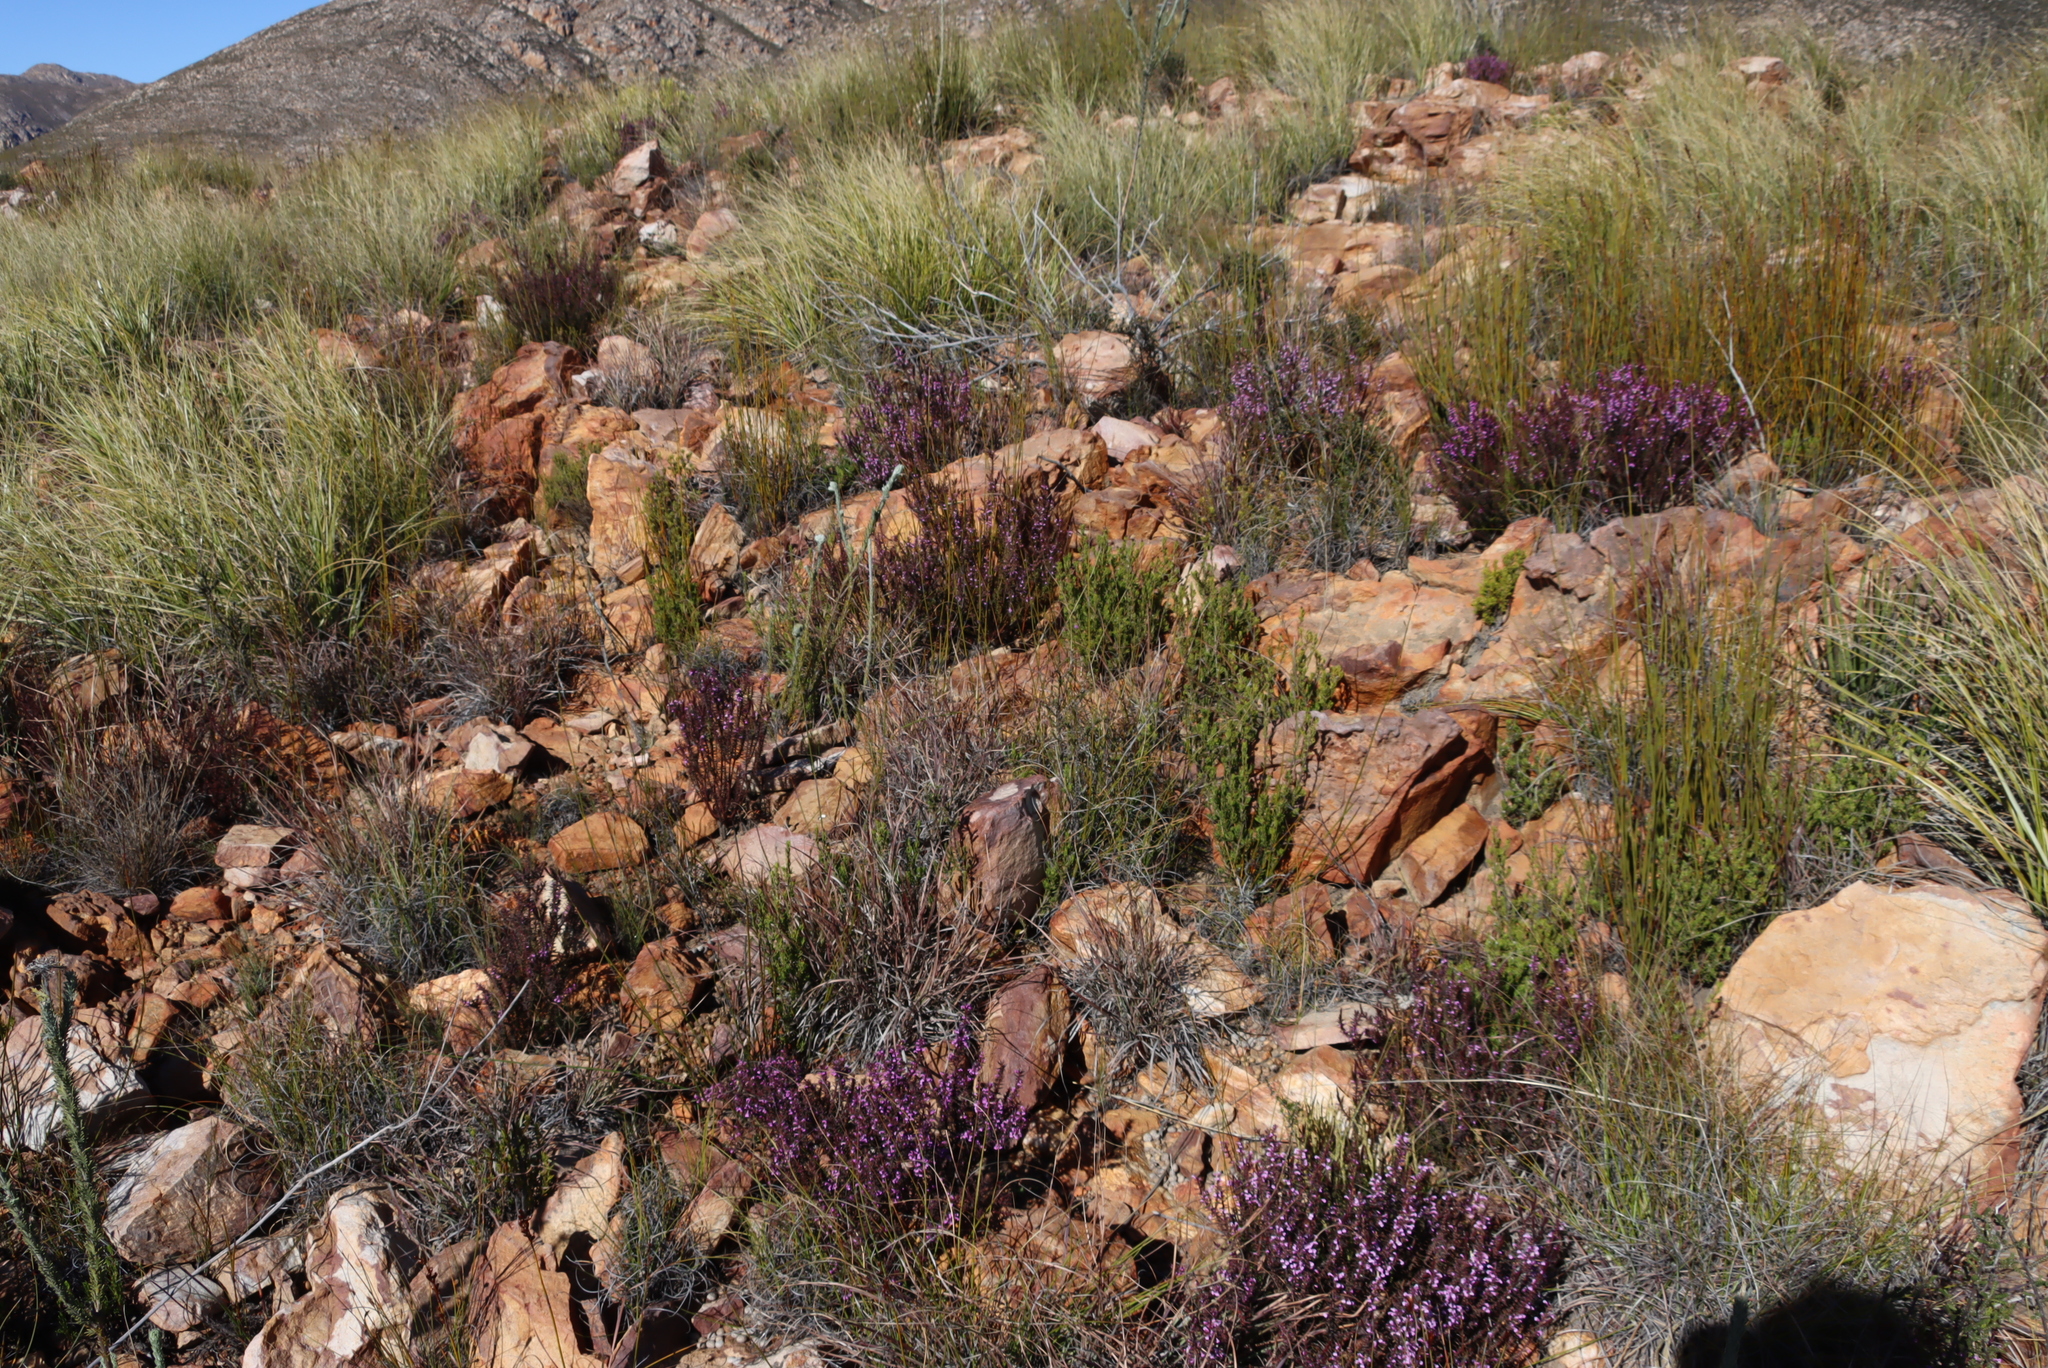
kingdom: Plantae
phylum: Tracheophyta
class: Magnoliopsida
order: Fabales
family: Polygalaceae
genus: Muraltia
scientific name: Muraltia juniperifolia
